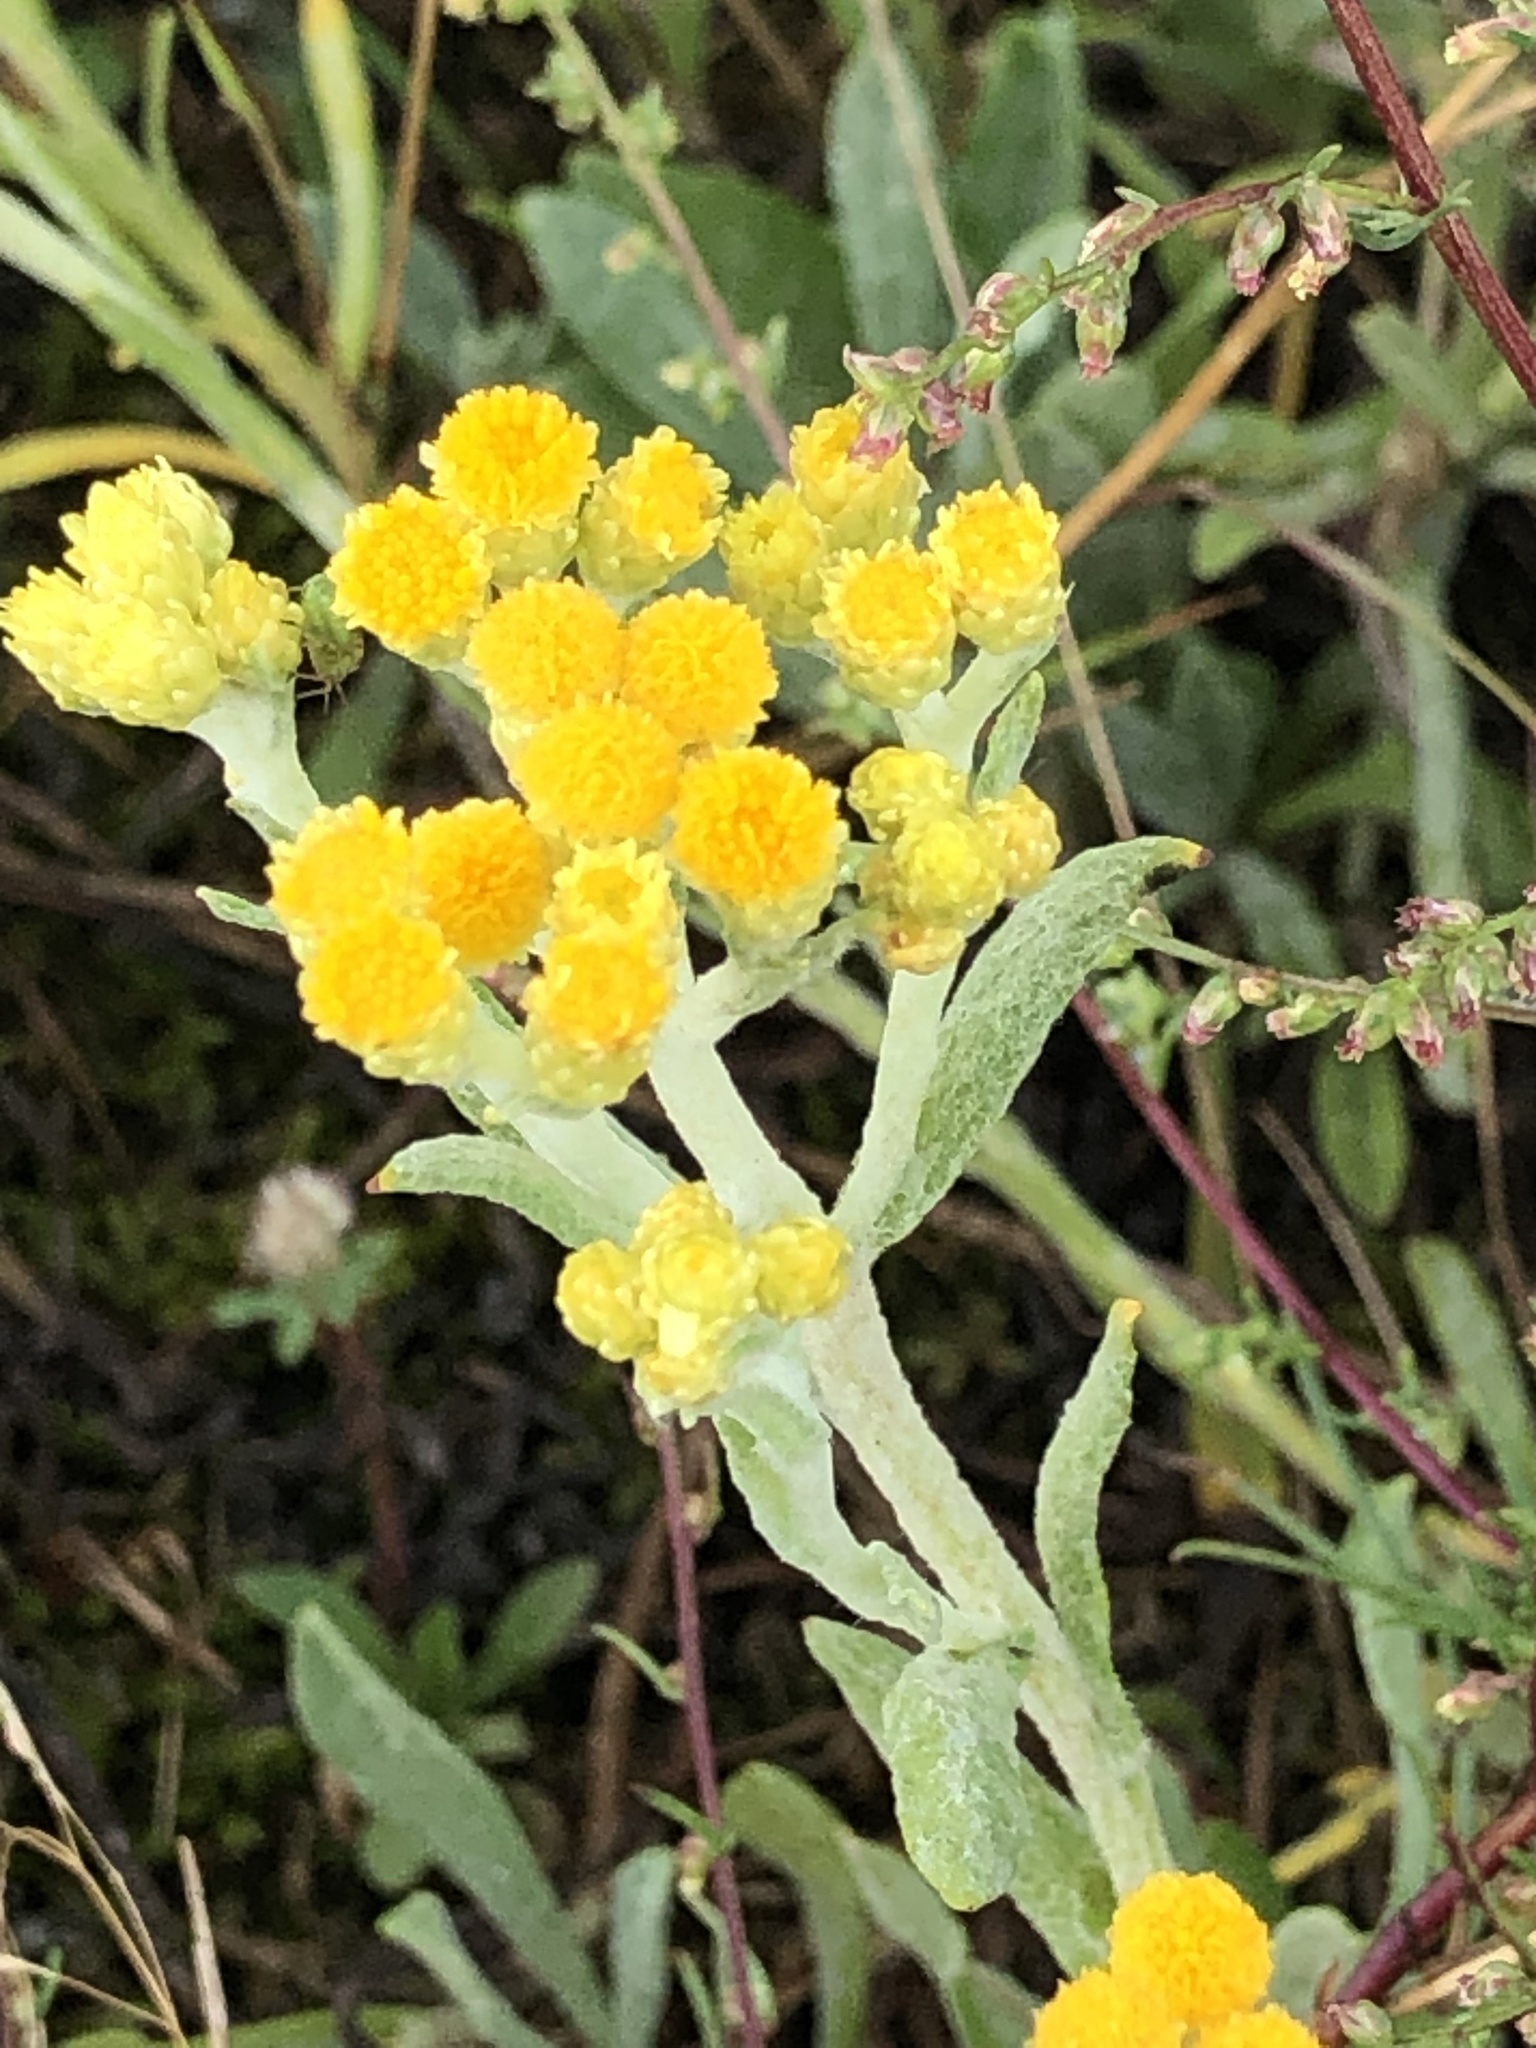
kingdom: Plantae
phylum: Tracheophyta
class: Magnoliopsida
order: Asterales
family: Asteraceae
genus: Helichrysum
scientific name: Helichrysum arenarium
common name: Strawflower
